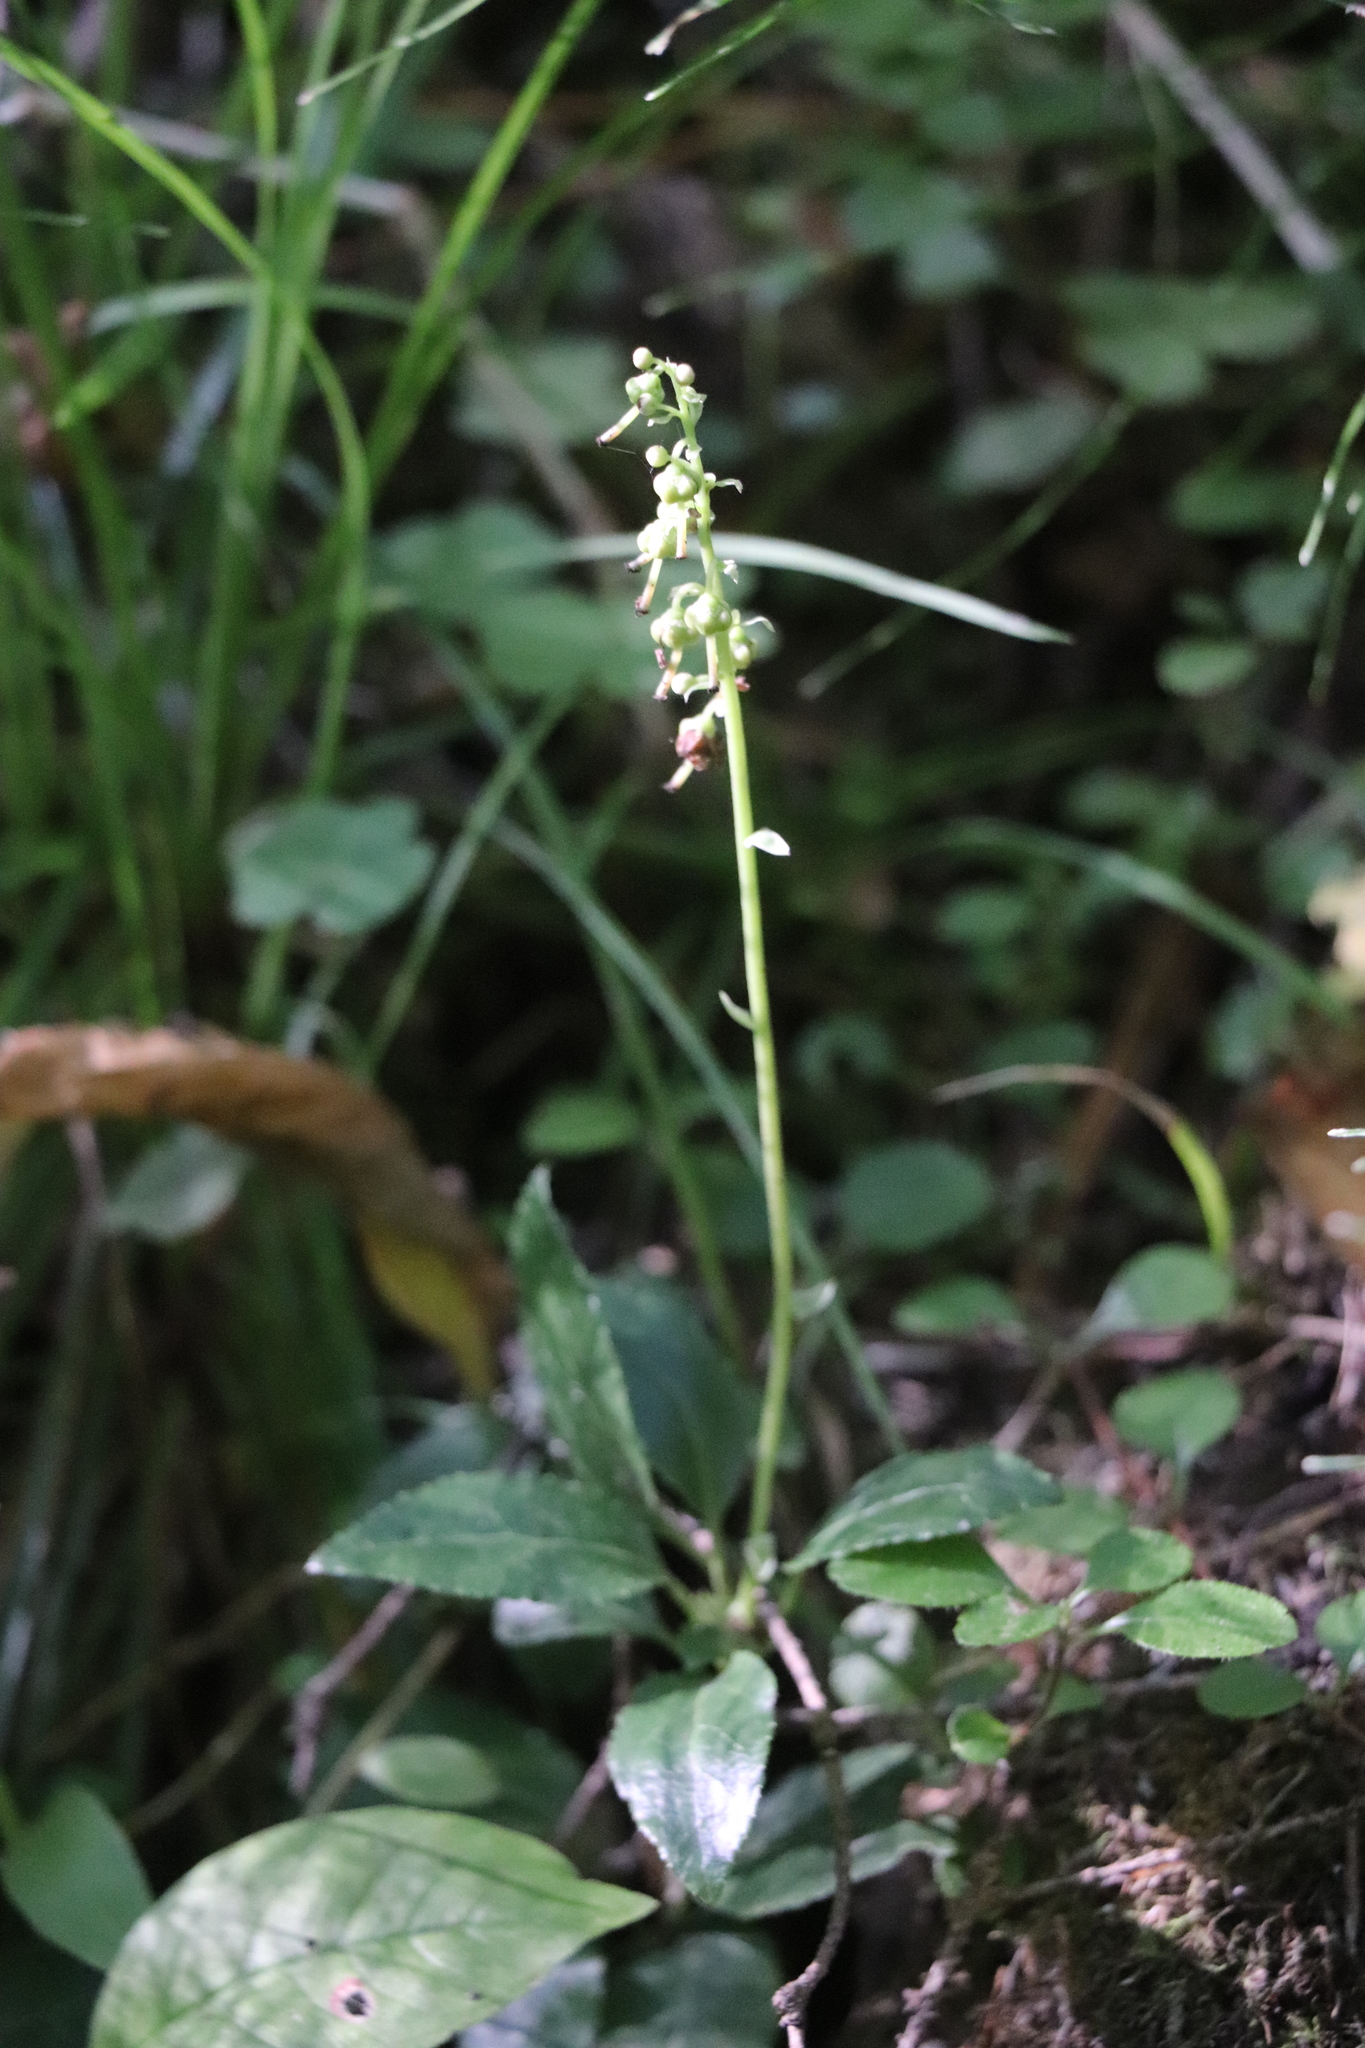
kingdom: Plantae
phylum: Tracheophyta
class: Magnoliopsida
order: Ericales
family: Ericaceae
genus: Orthilia
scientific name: Orthilia secunda
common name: One-sided orthilia
